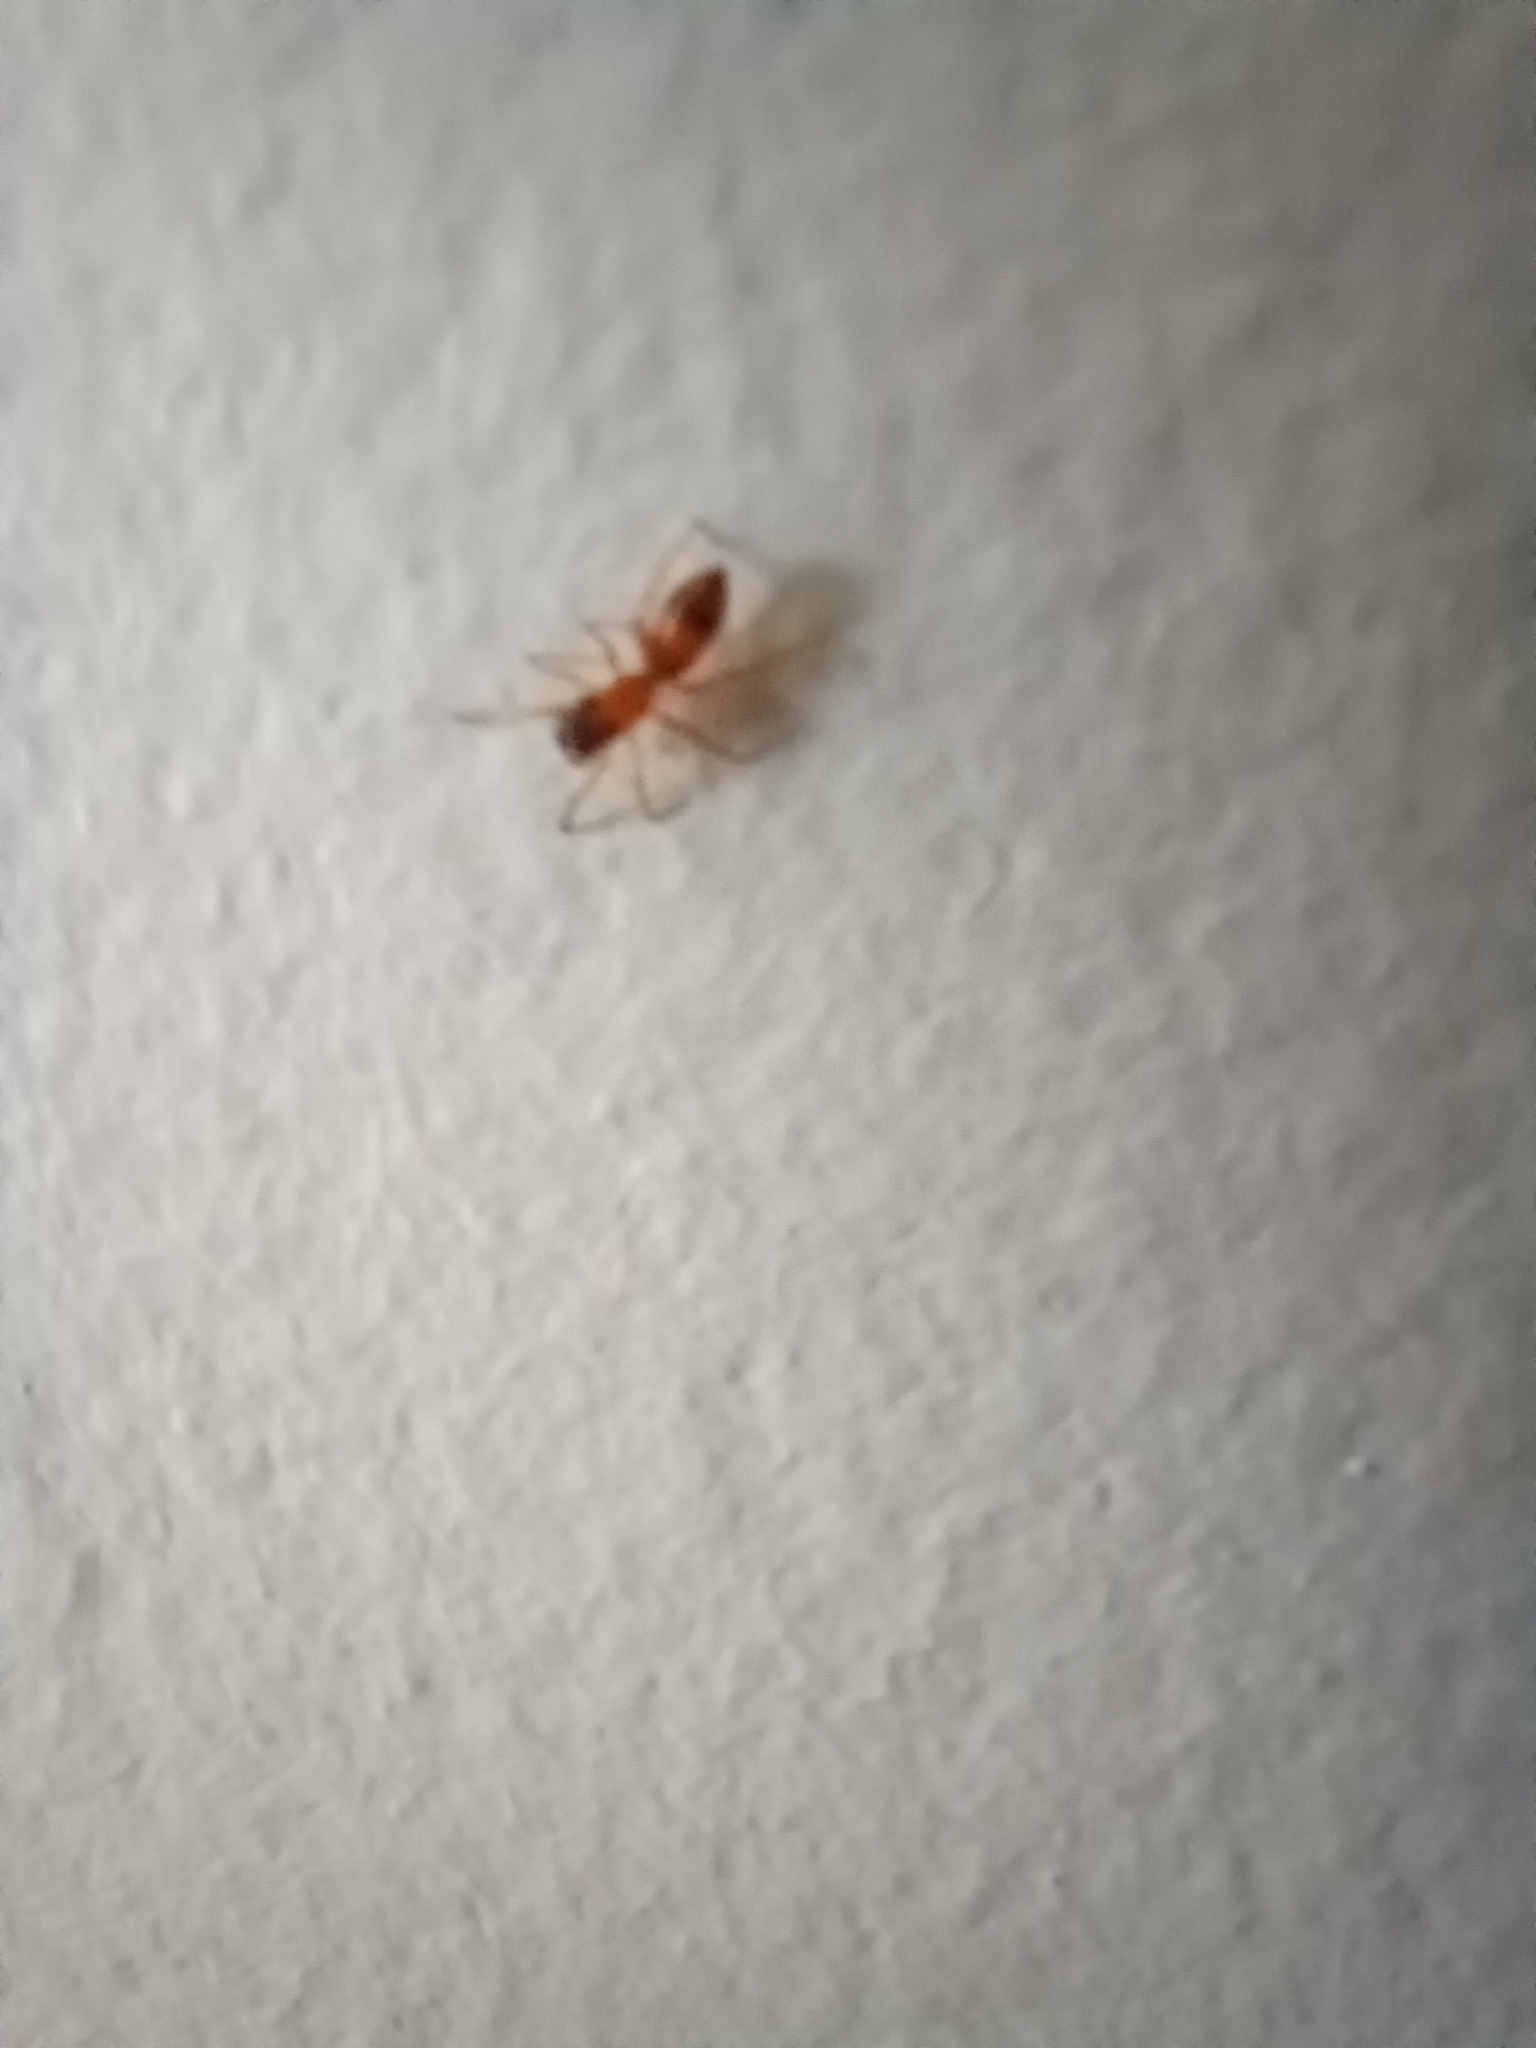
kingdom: Animalia
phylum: Arthropoda
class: Arachnida
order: Araneae
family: Salticidae
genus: Myrmarachne
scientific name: Myrmarachne formicaria
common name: Ant mimic jumping spider
